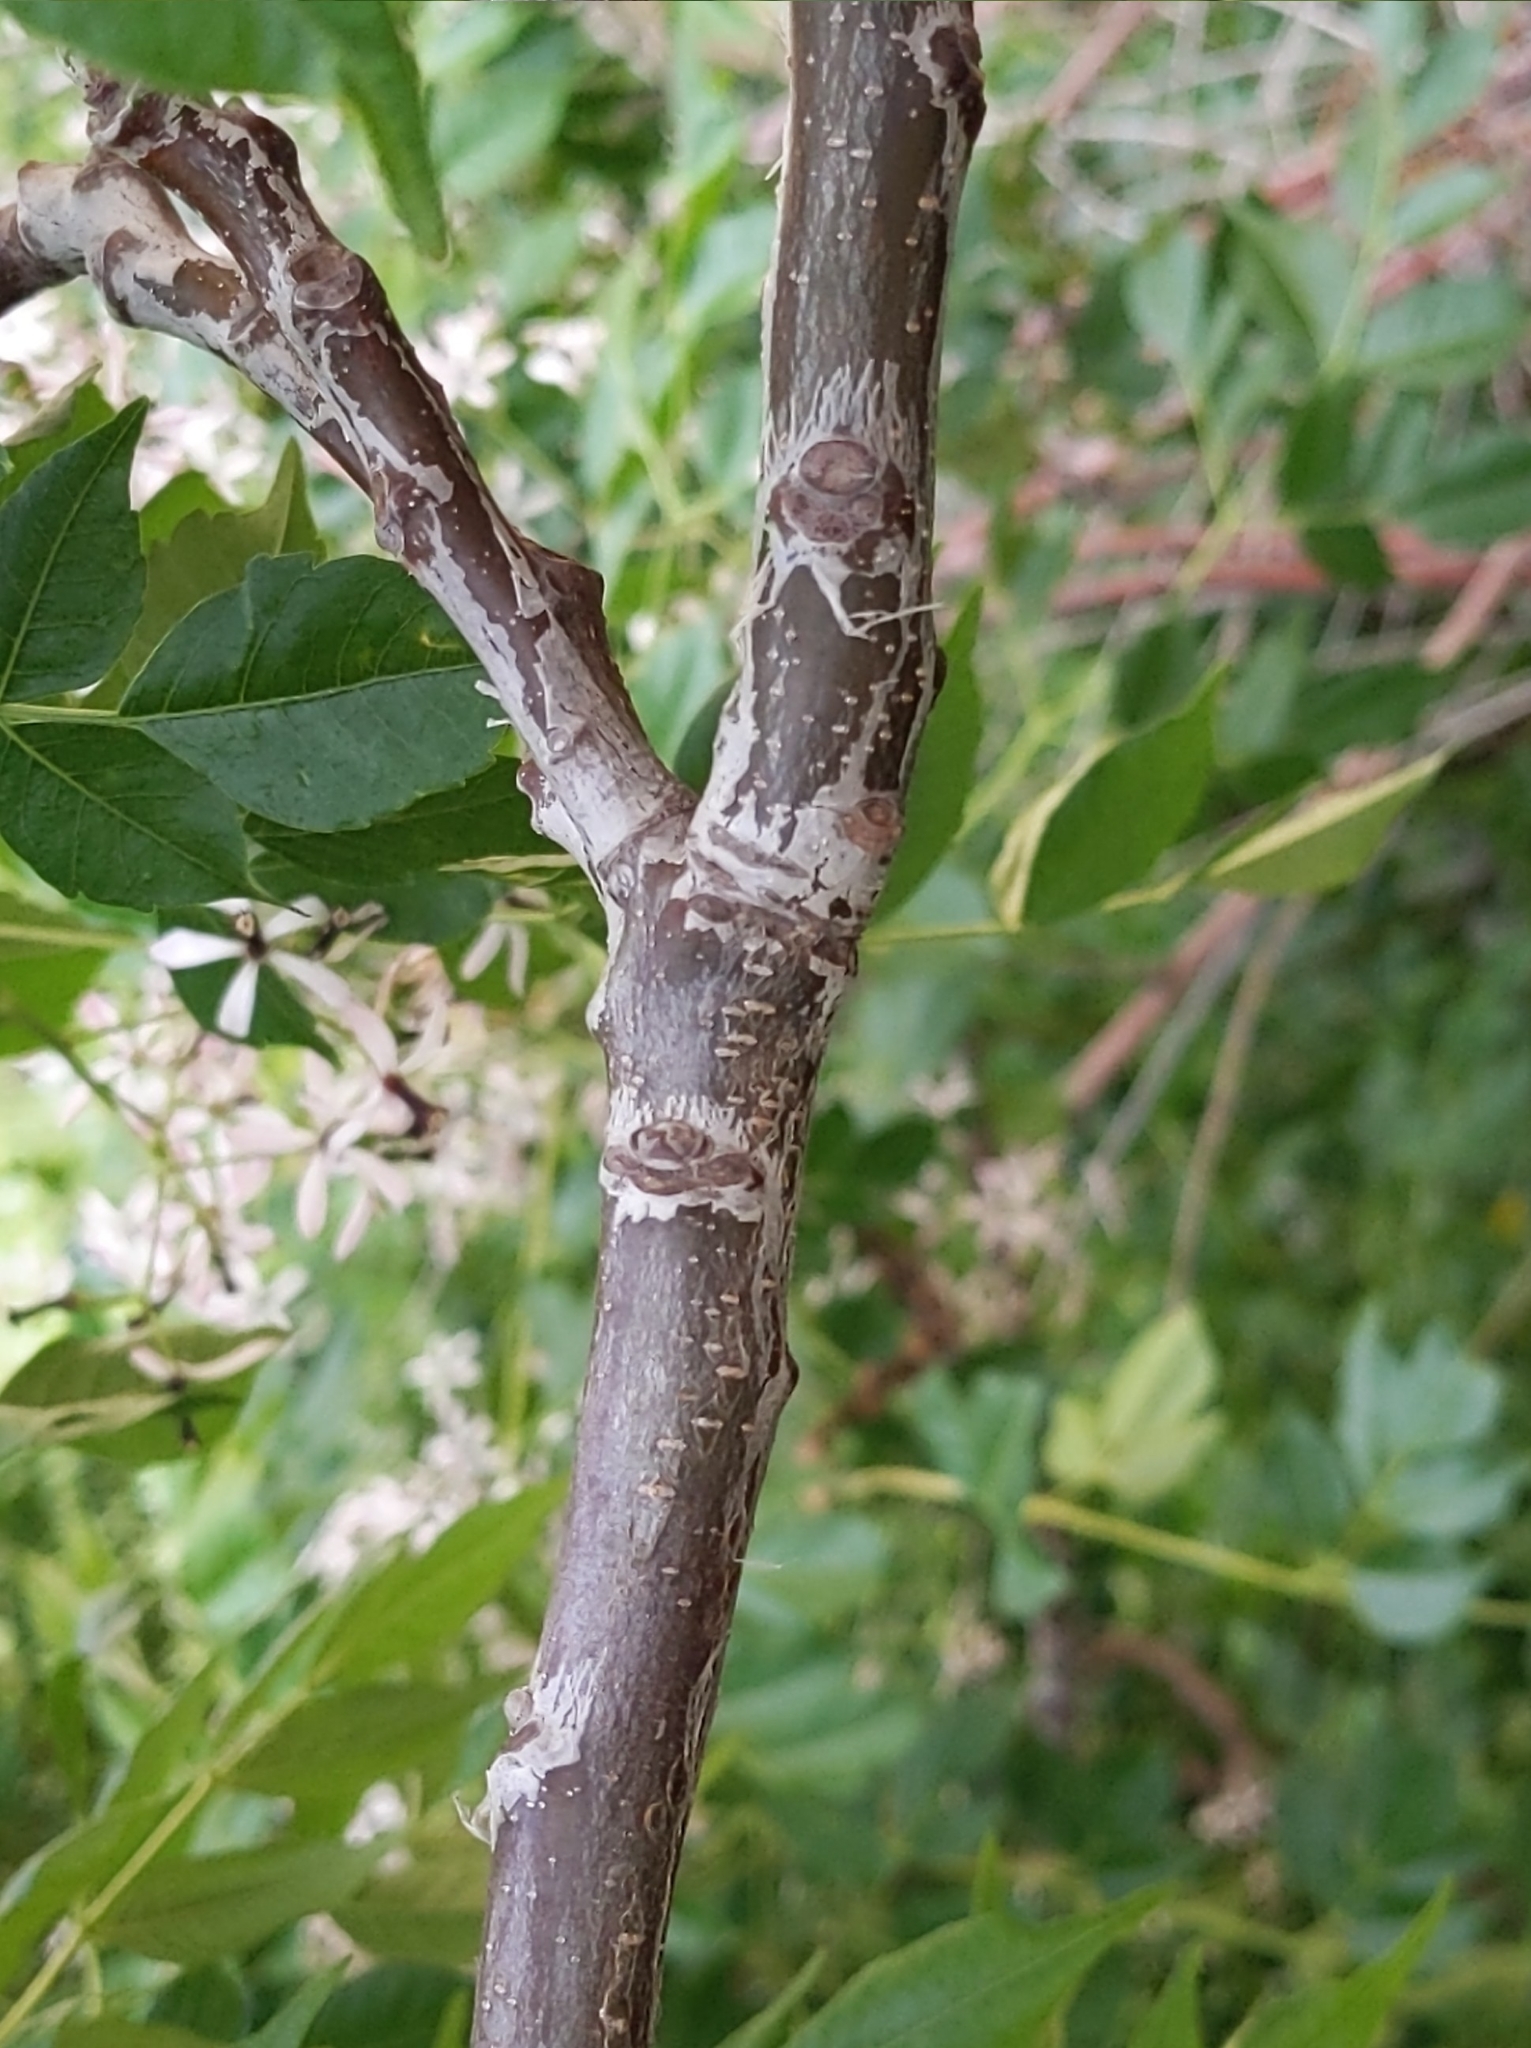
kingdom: Plantae
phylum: Tracheophyta
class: Magnoliopsida
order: Sapindales
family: Meliaceae
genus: Melia
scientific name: Melia azedarach
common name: Chinaberrytree
